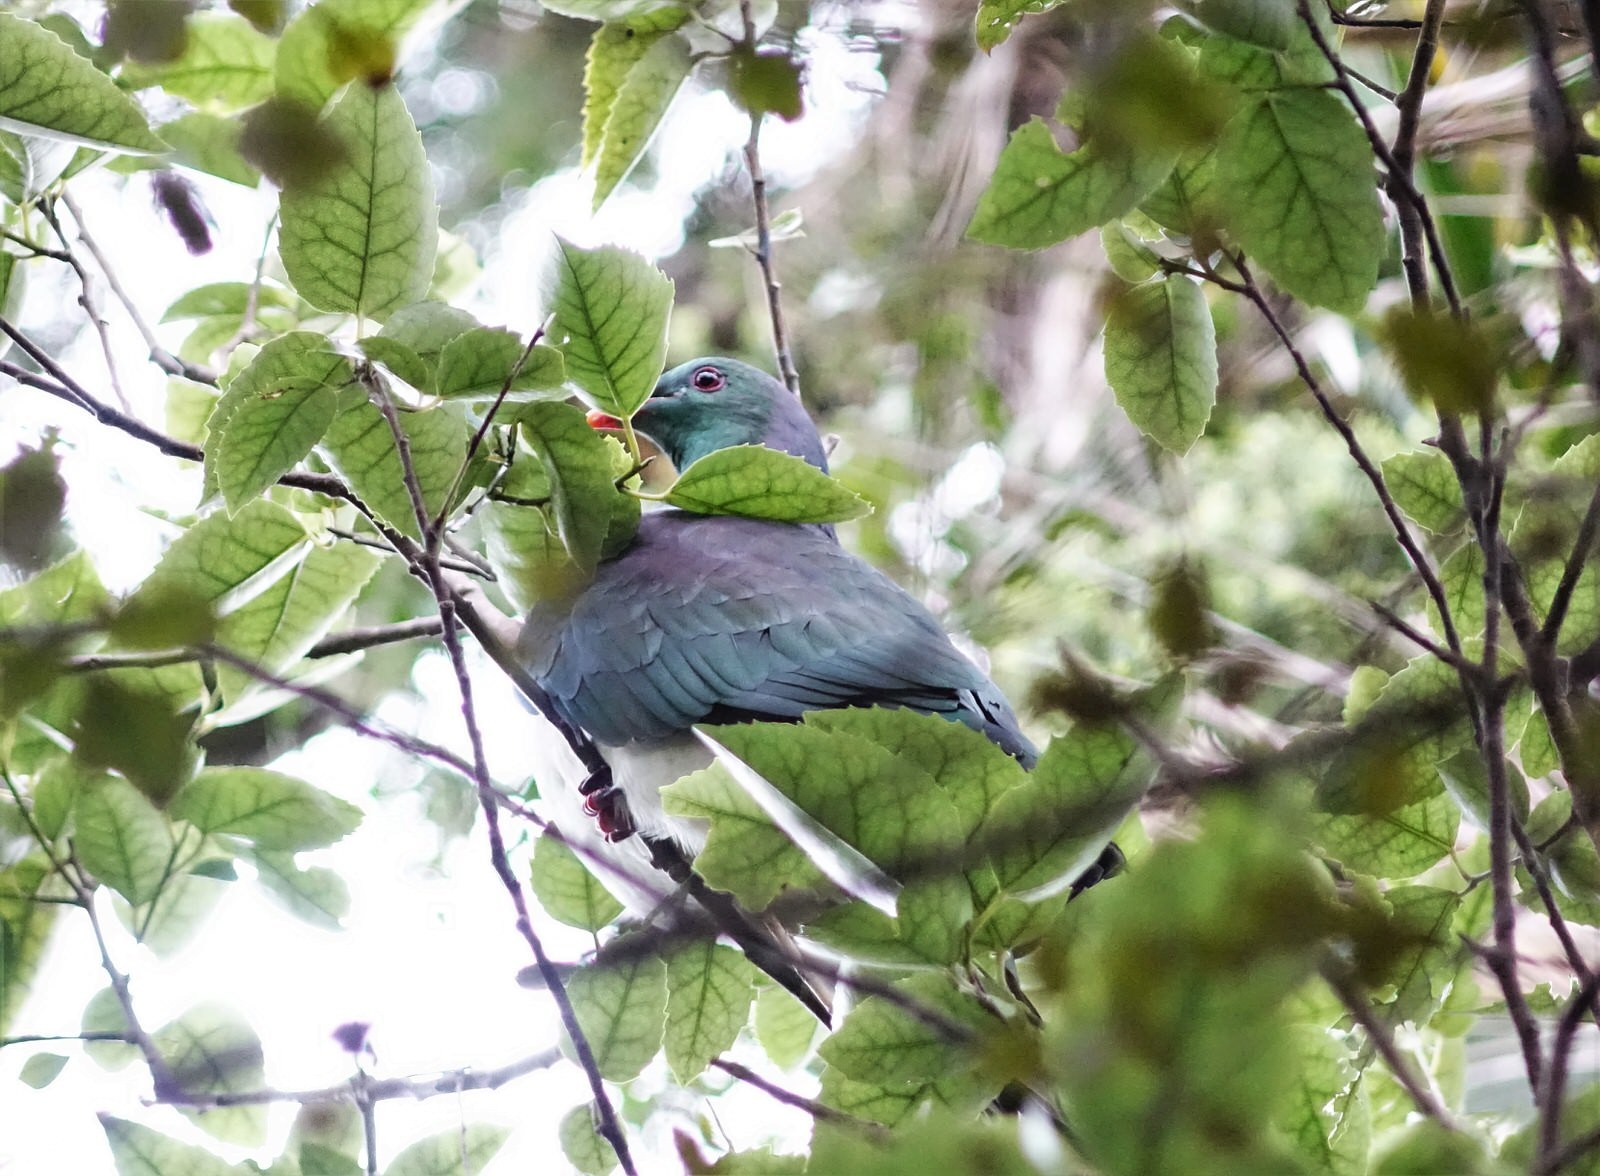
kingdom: Animalia
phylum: Chordata
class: Aves
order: Columbiformes
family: Columbidae
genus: Hemiphaga
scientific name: Hemiphaga novaeseelandiae
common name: New zealand pigeon
